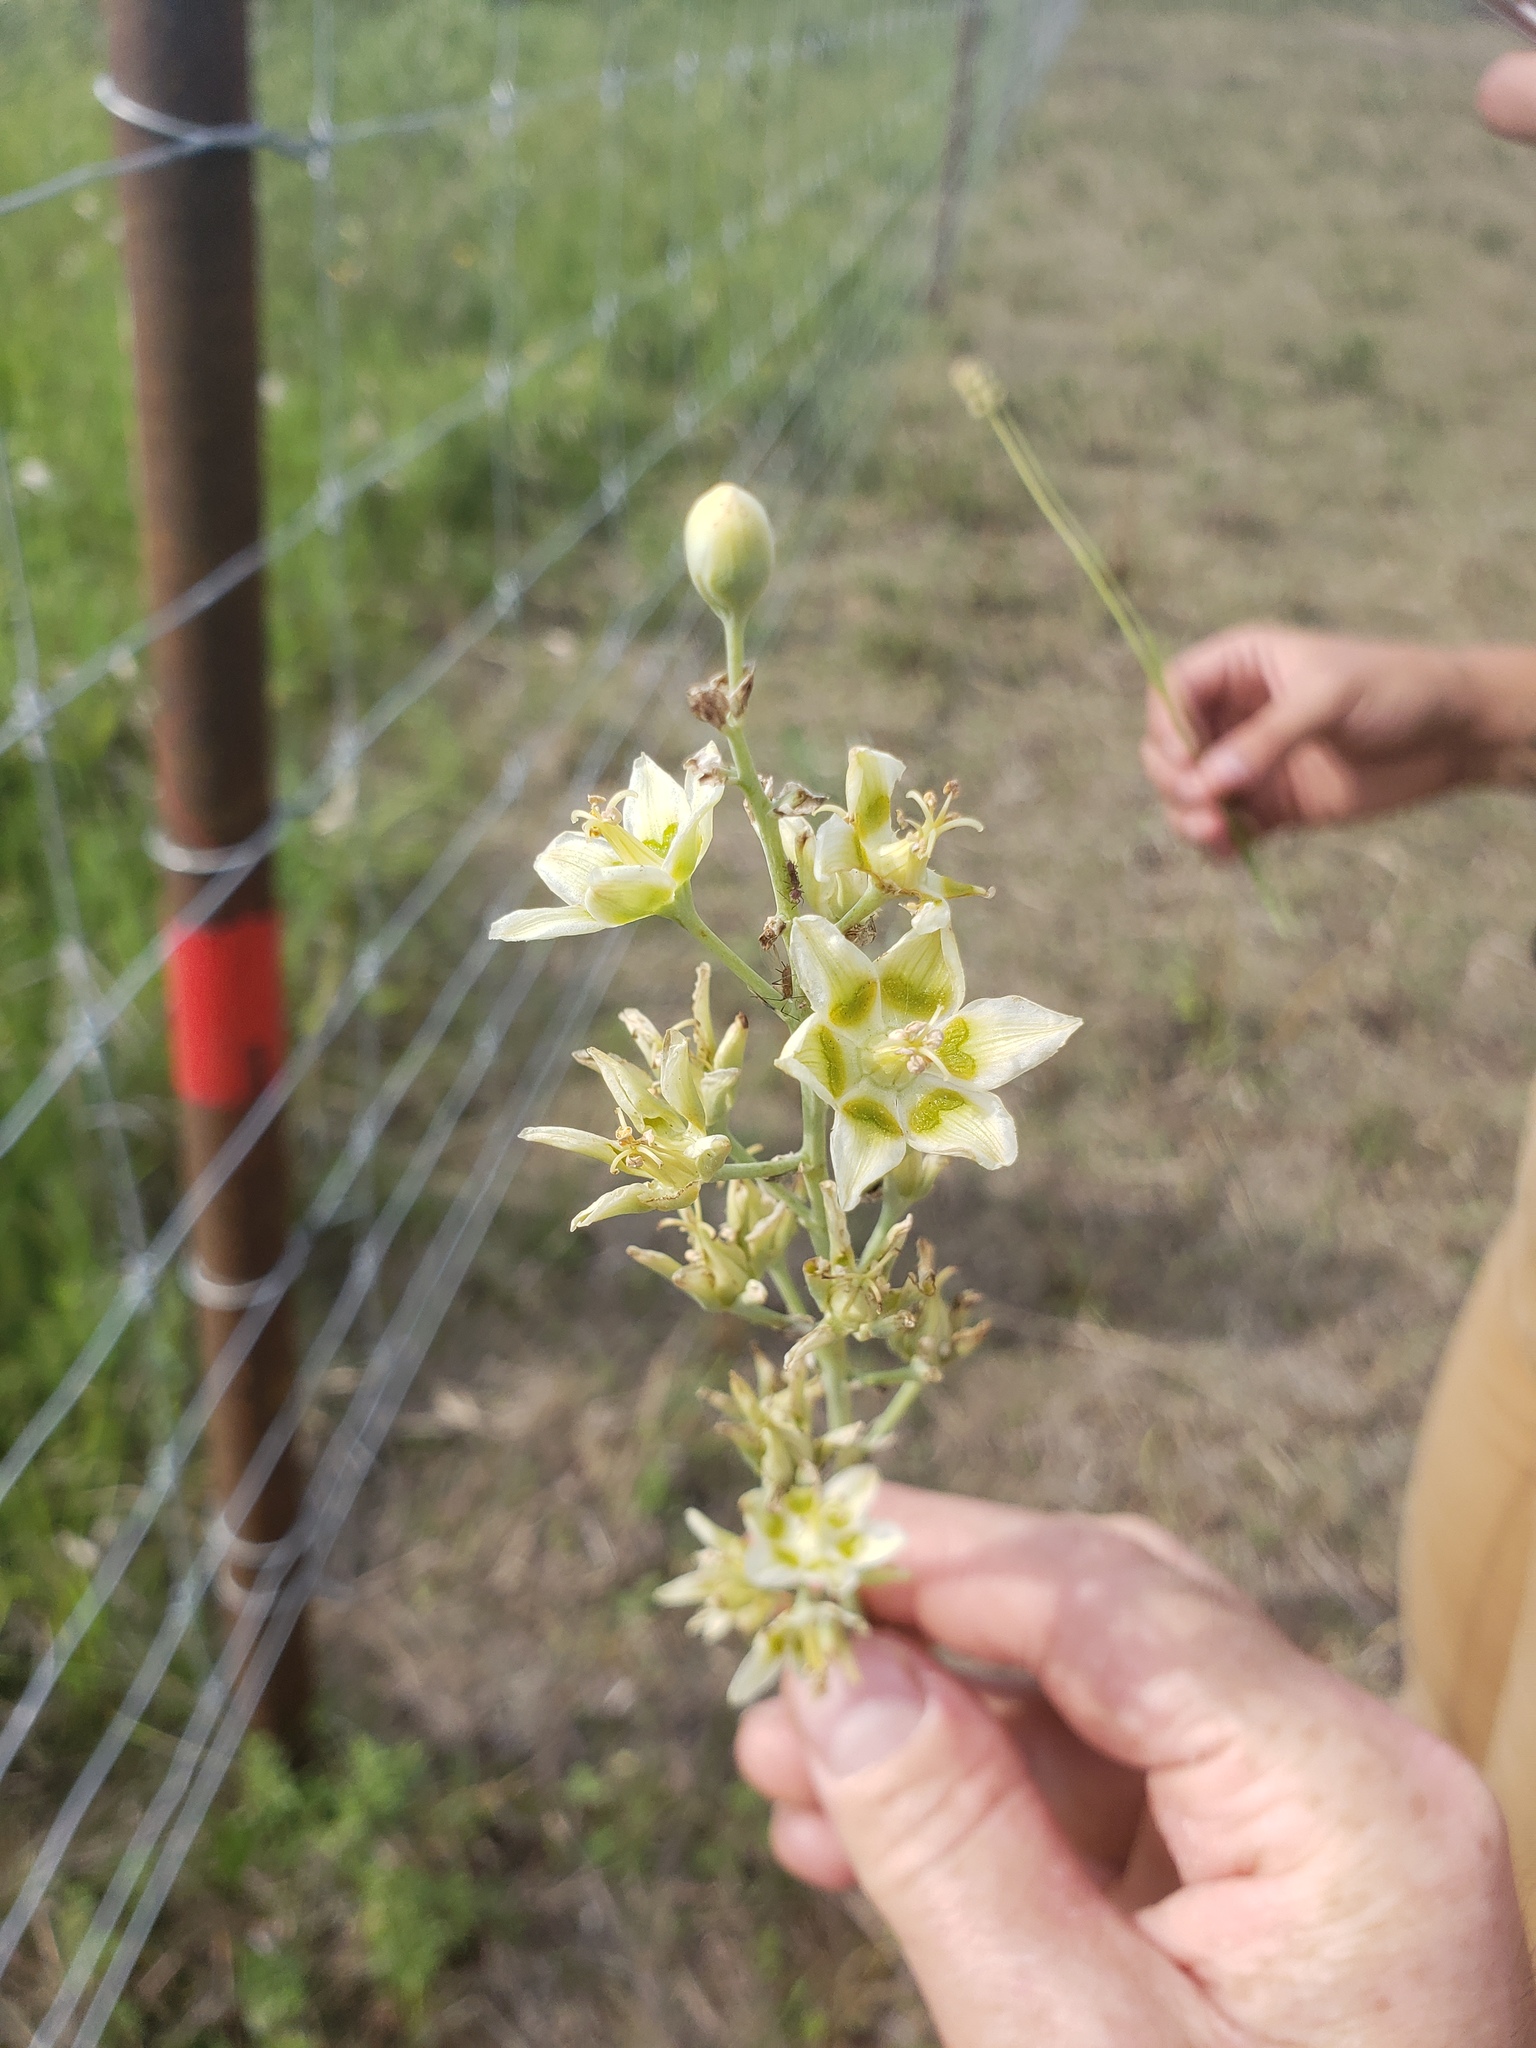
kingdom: Plantae
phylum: Tracheophyta
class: Liliopsida
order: Liliales
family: Melanthiaceae
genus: Anticlea
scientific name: Anticlea elegans
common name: Mountain death camas
